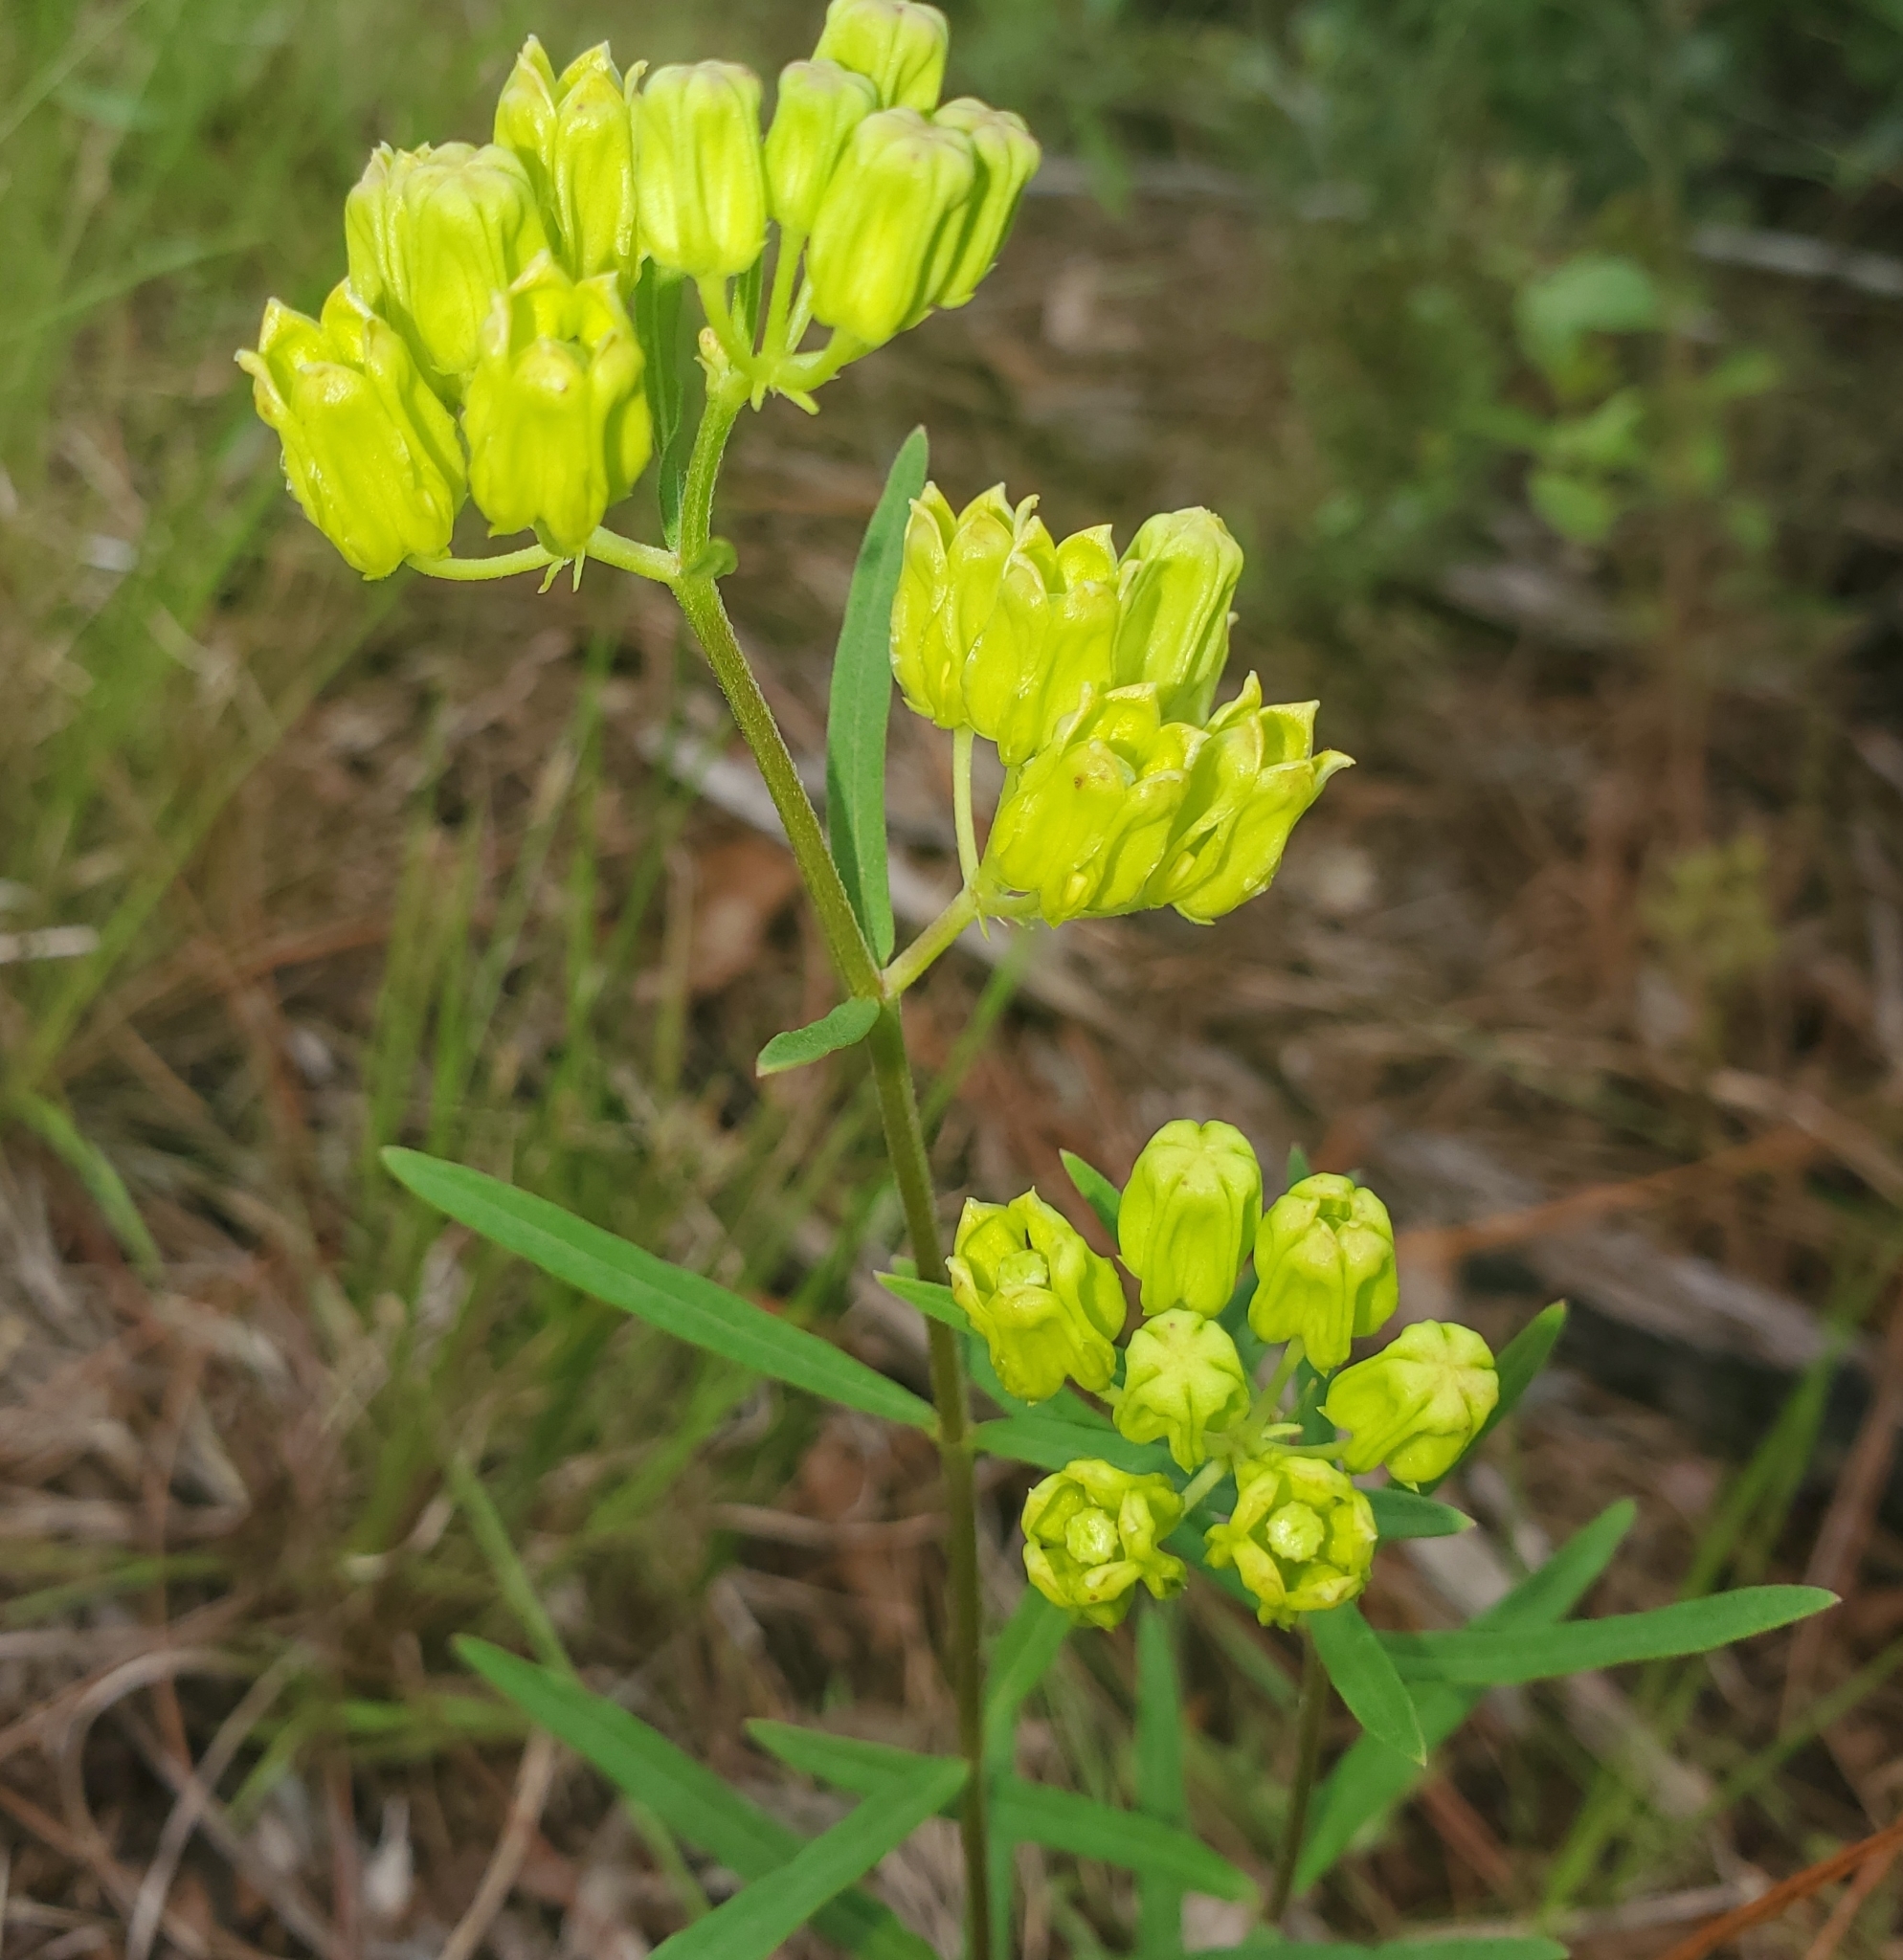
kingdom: Plantae
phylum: Tracheophyta
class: Magnoliopsida
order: Gentianales
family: Apocynaceae
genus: Asclepias
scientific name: Asclepias pedicellata
